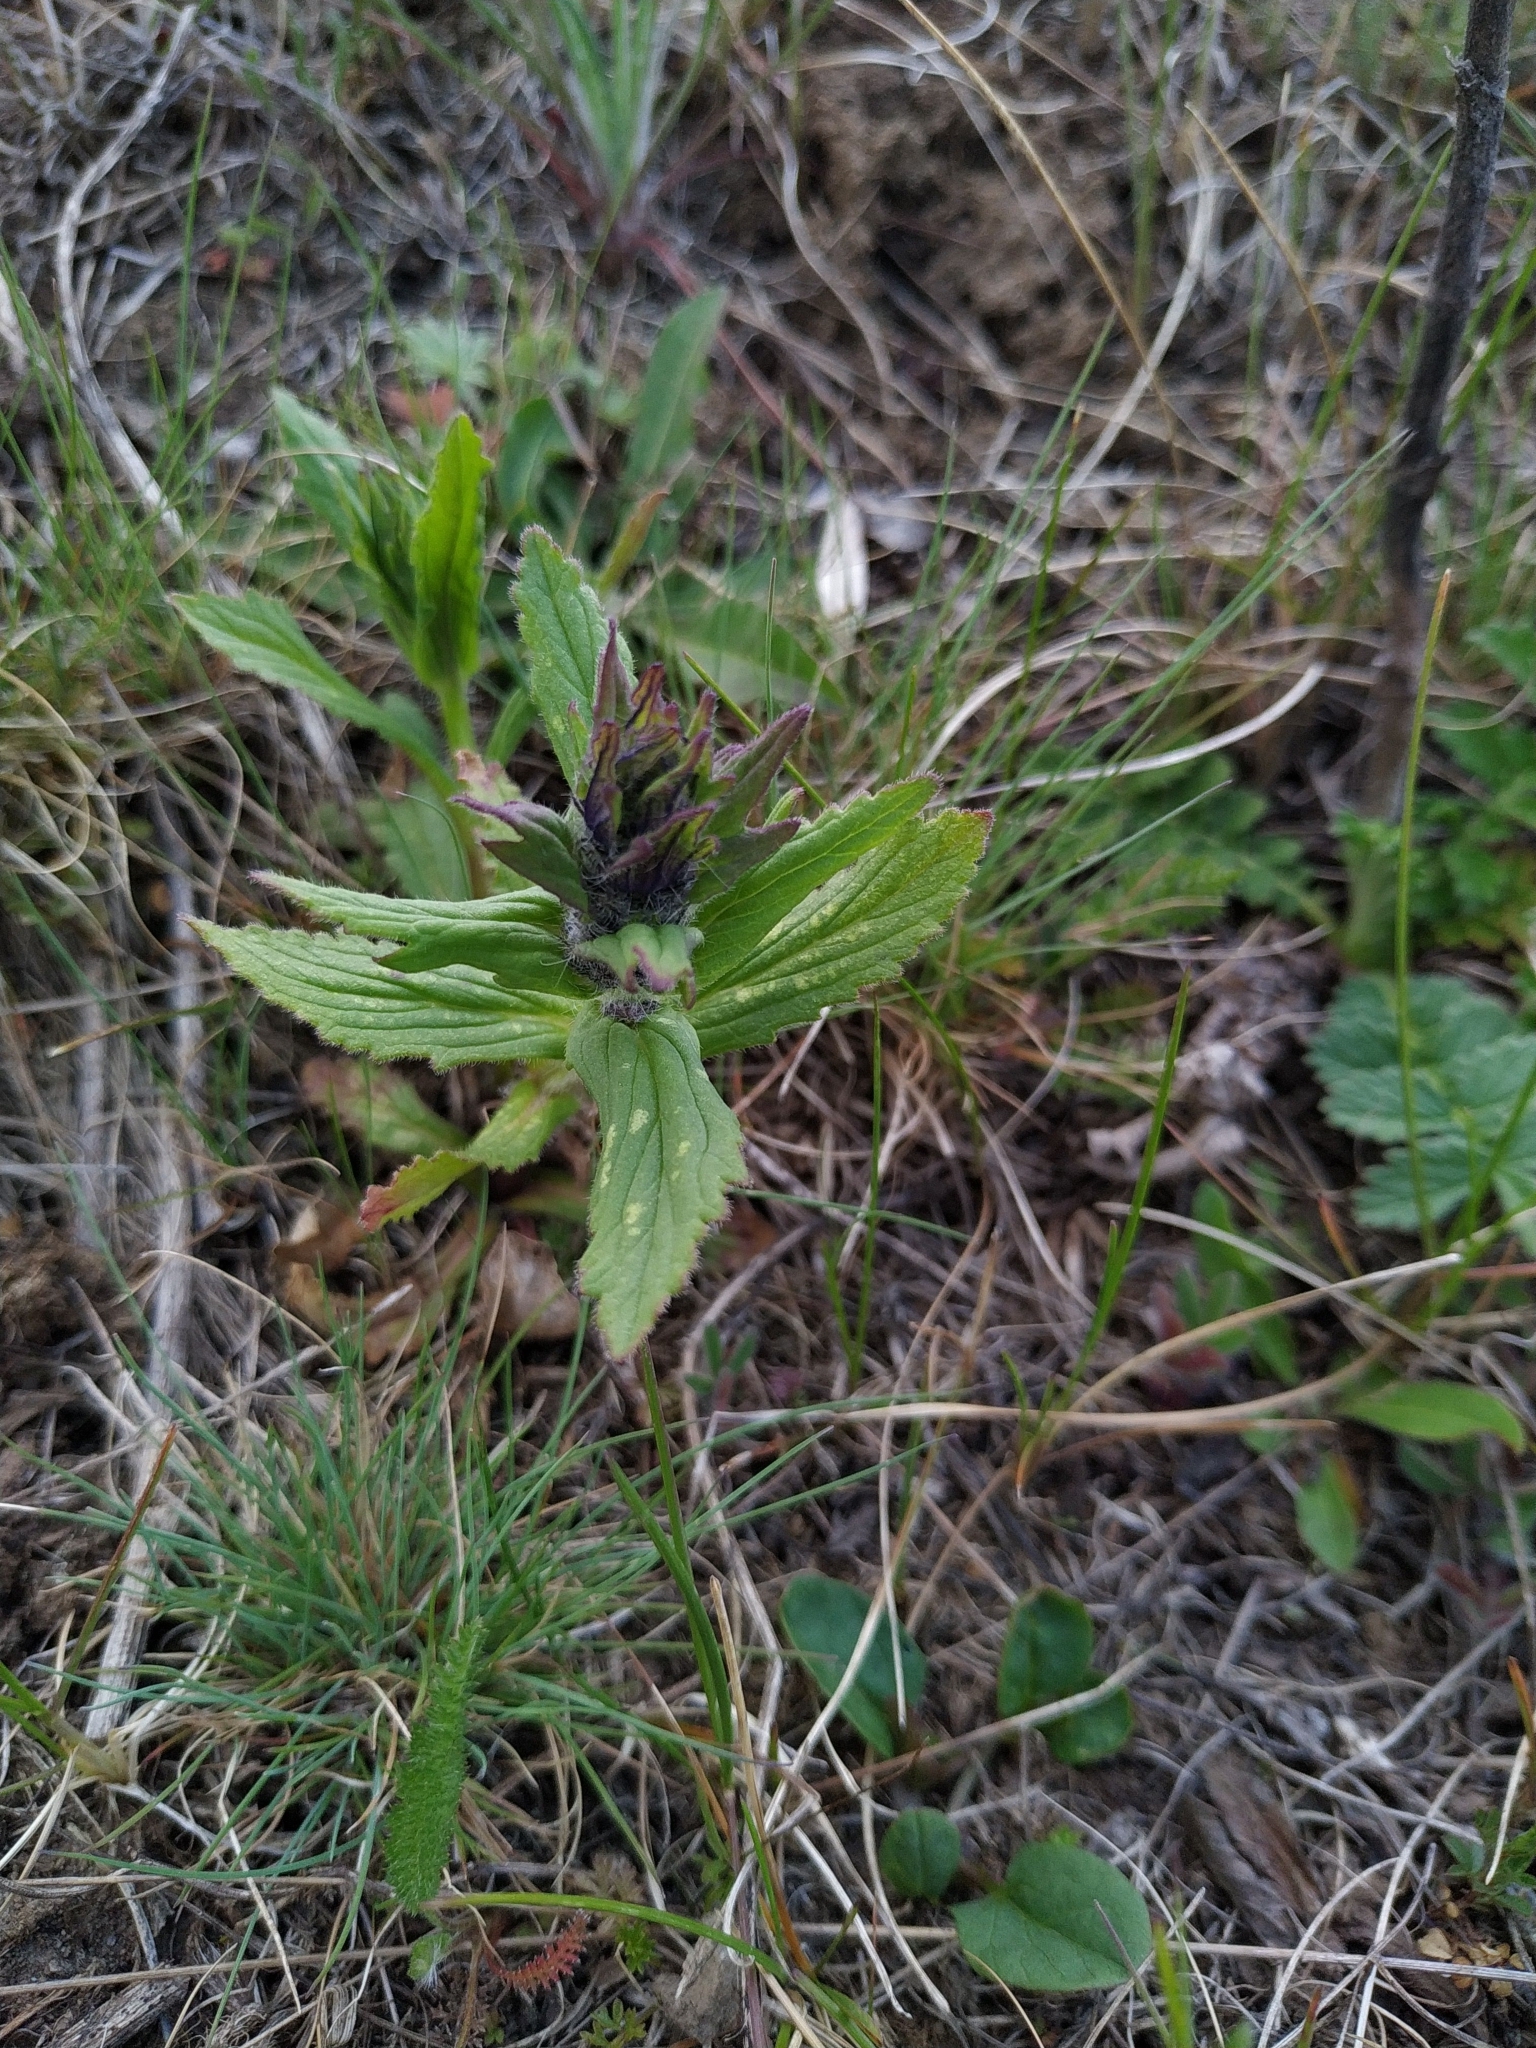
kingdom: Plantae
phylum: Tracheophyta
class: Magnoliopsida
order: Lamiales
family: Lamiaceae
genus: Ajuga
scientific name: Ajuga genevensis
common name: Blue bugle
